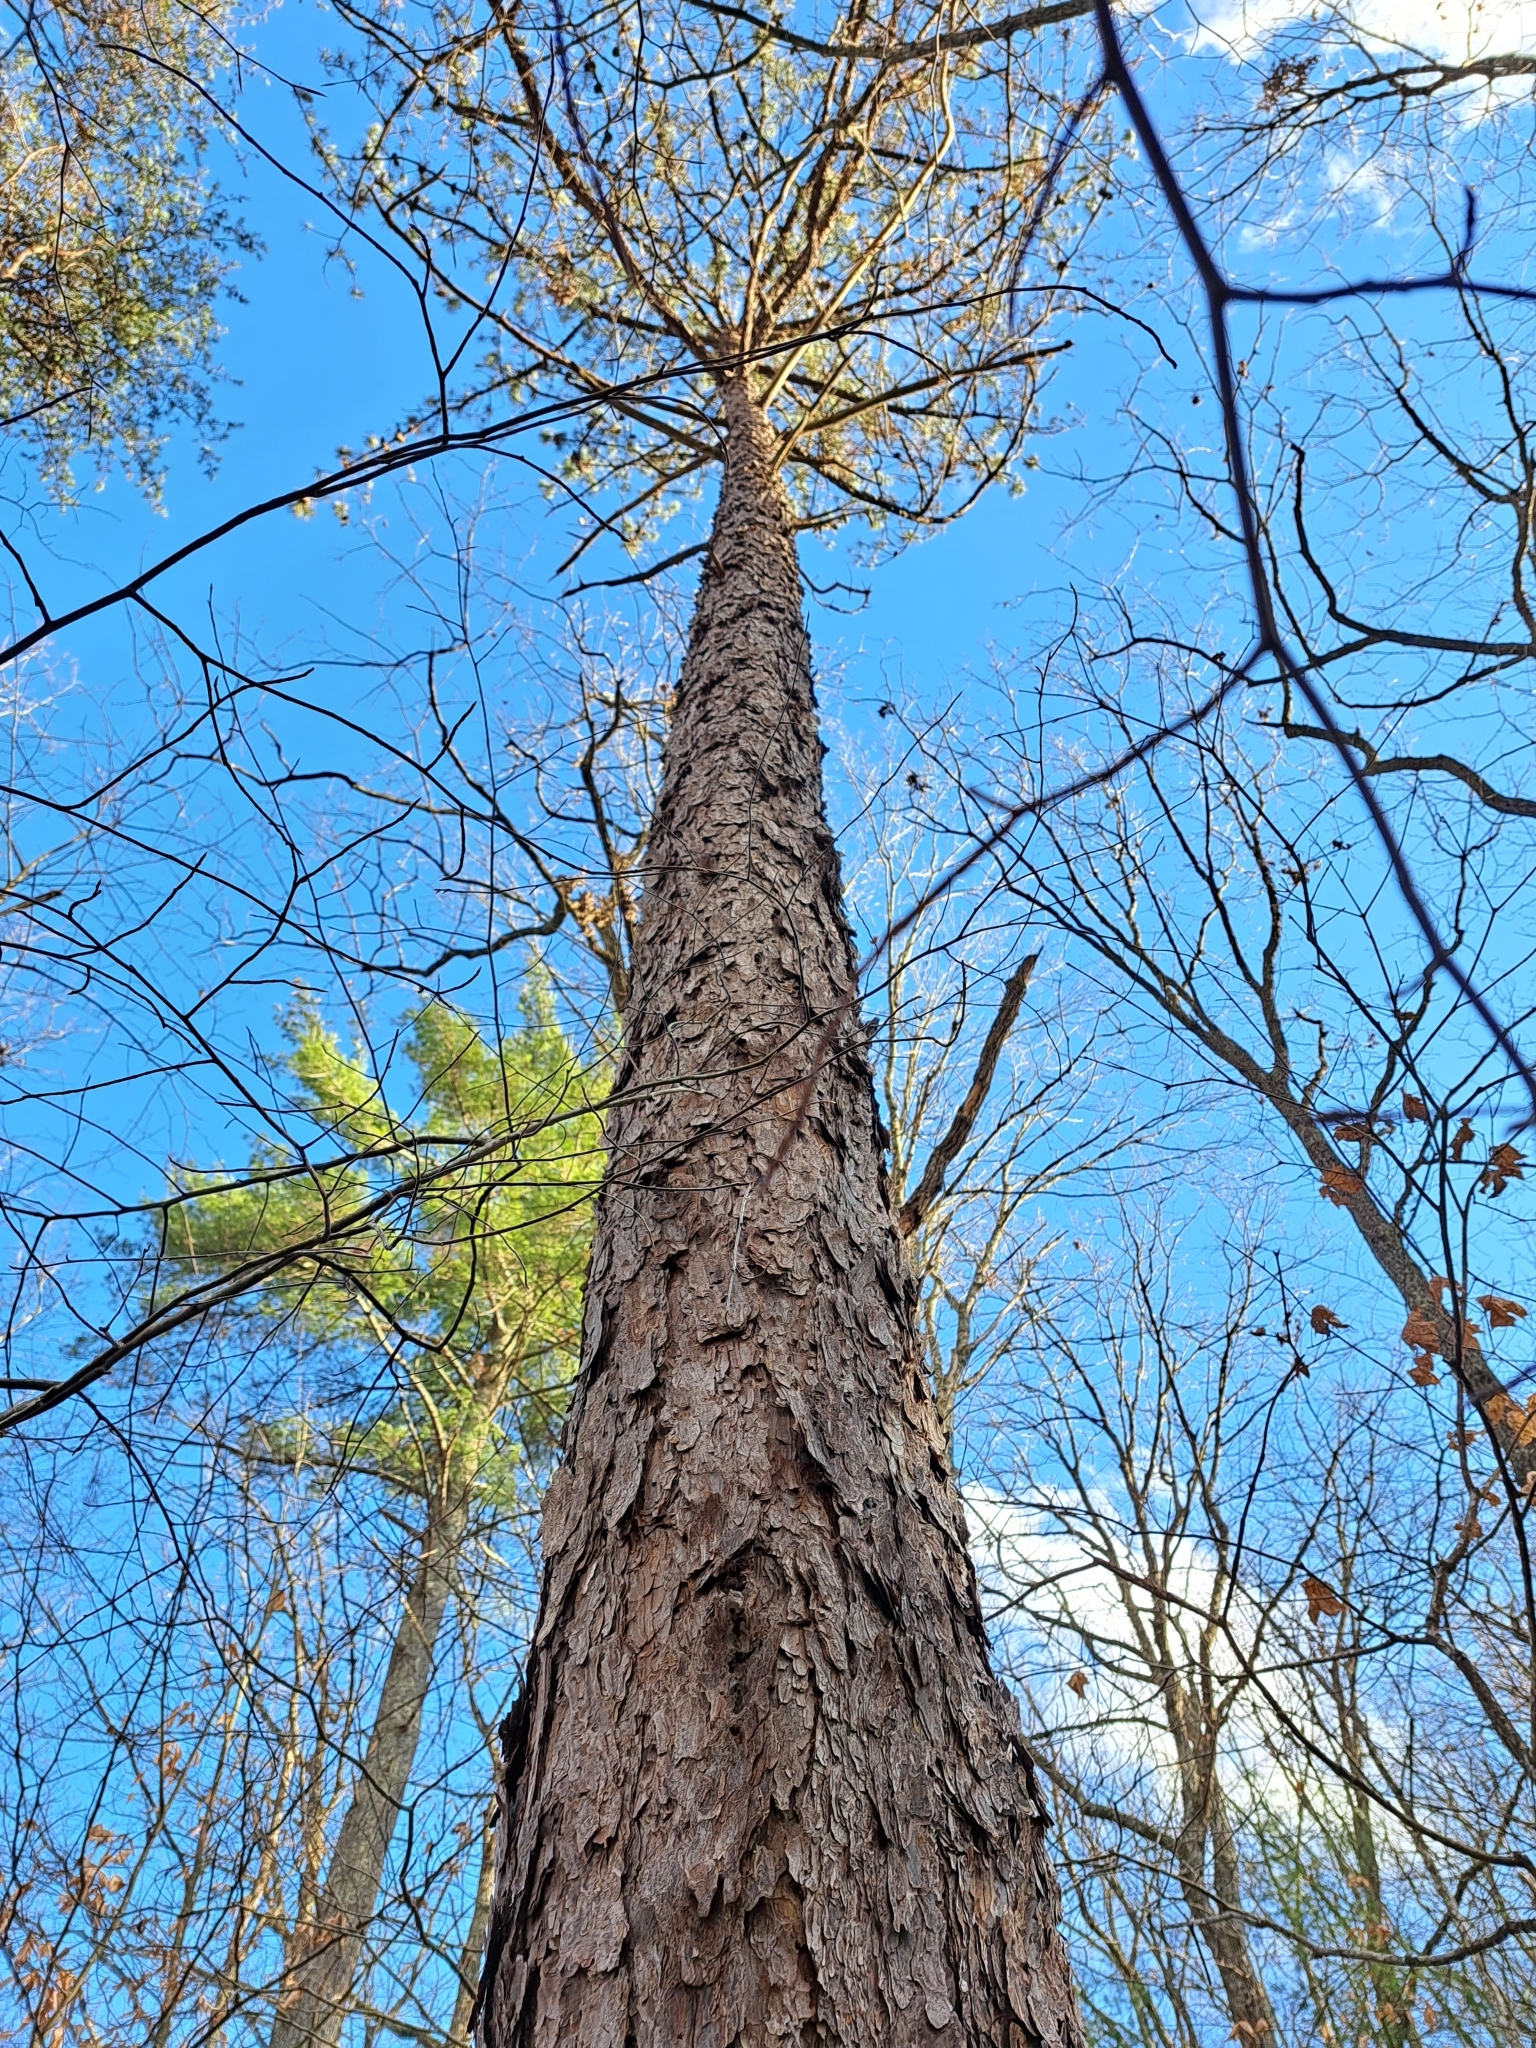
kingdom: Plantae
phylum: Tracheophyta
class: Pinopsida
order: Pinales
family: Pinaceae
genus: Pinus
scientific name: Pinus pungens
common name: Hickory pine
